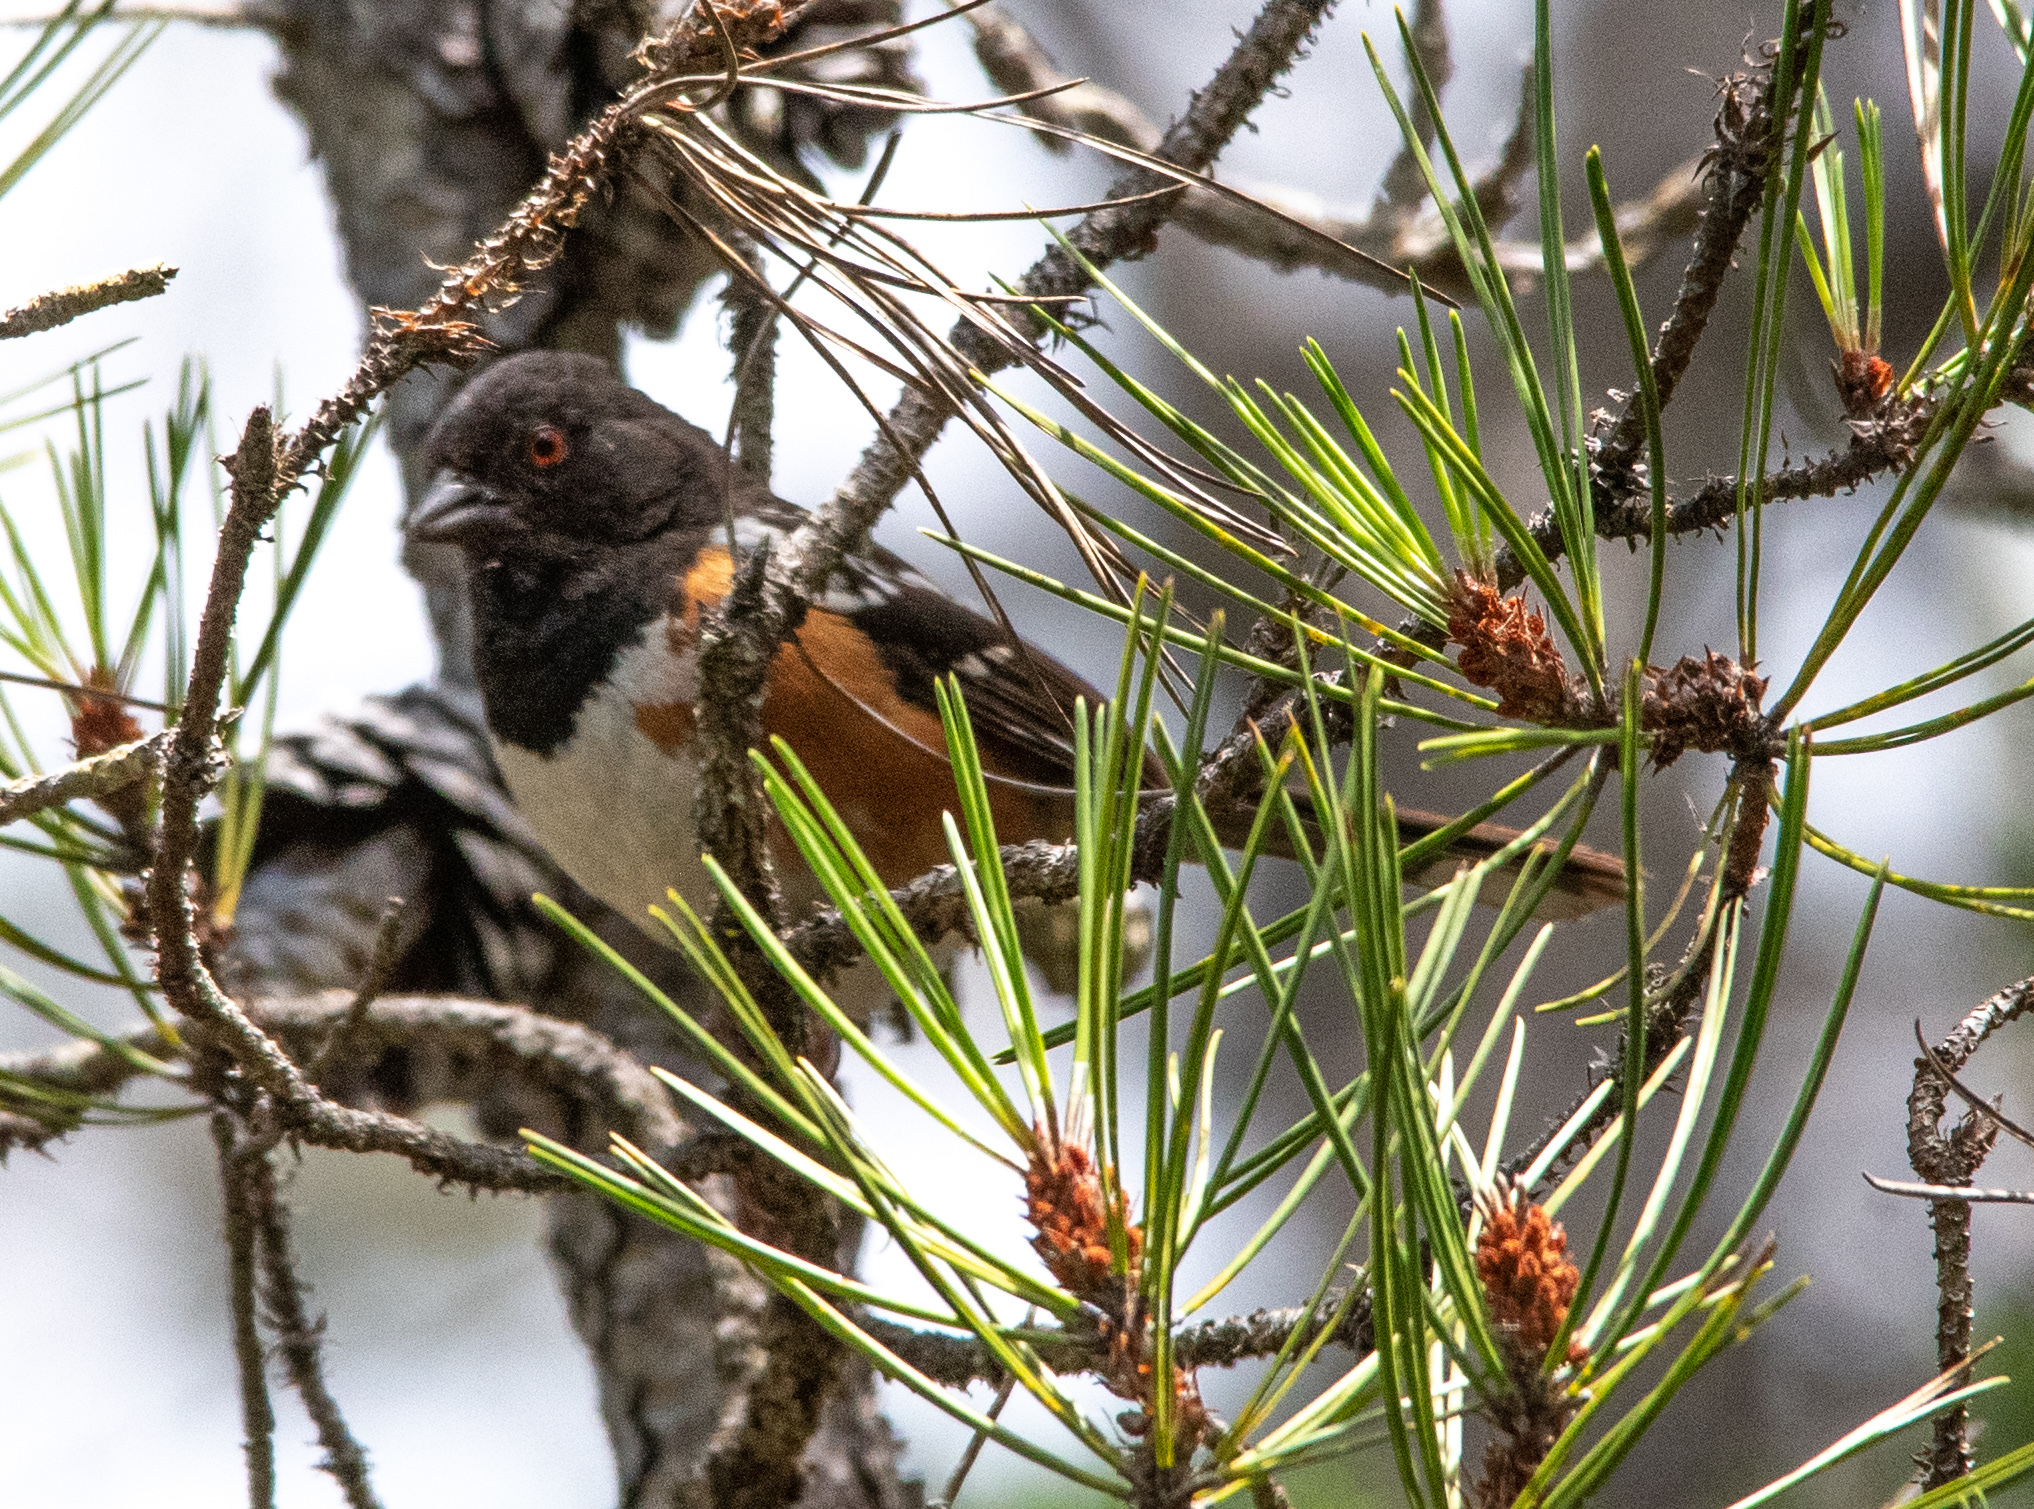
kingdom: Animalia
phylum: Chordata
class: Aves
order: Passeriformes
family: Passerellidae
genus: Pipilo
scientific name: Pipilo maculatus
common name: Spotted towhee
